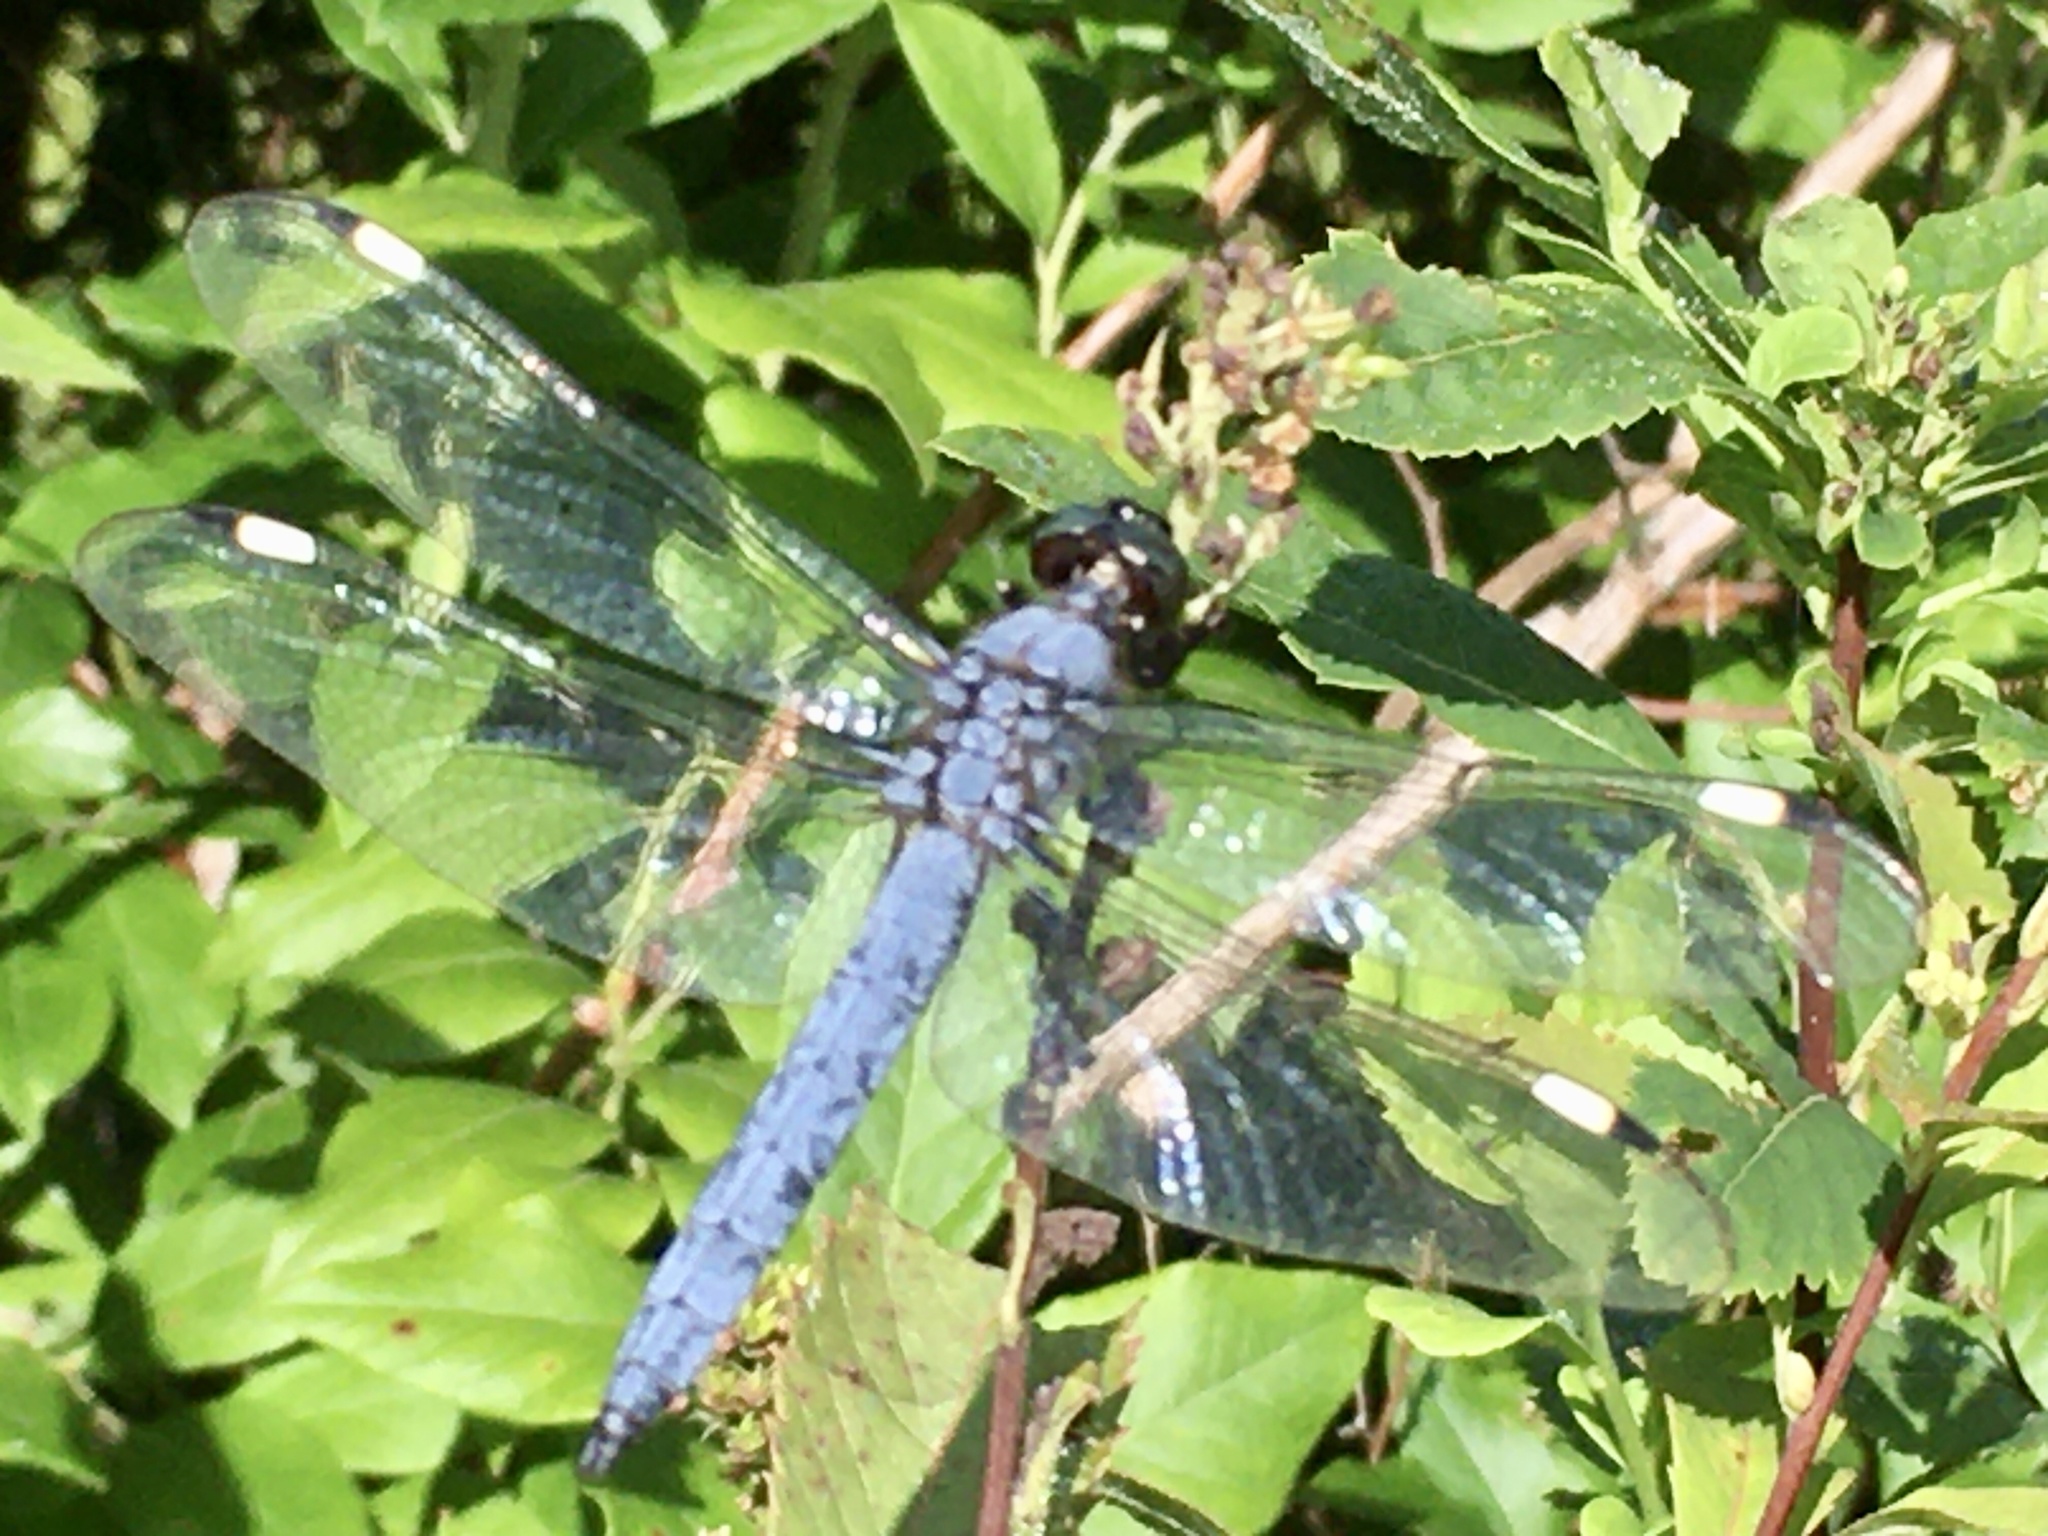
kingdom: Animalia
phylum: Arthropoda
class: Insecta
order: Odonata
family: Libellulidae
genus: Libellula
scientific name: Libellula cyanea
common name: Spangled skimmer
